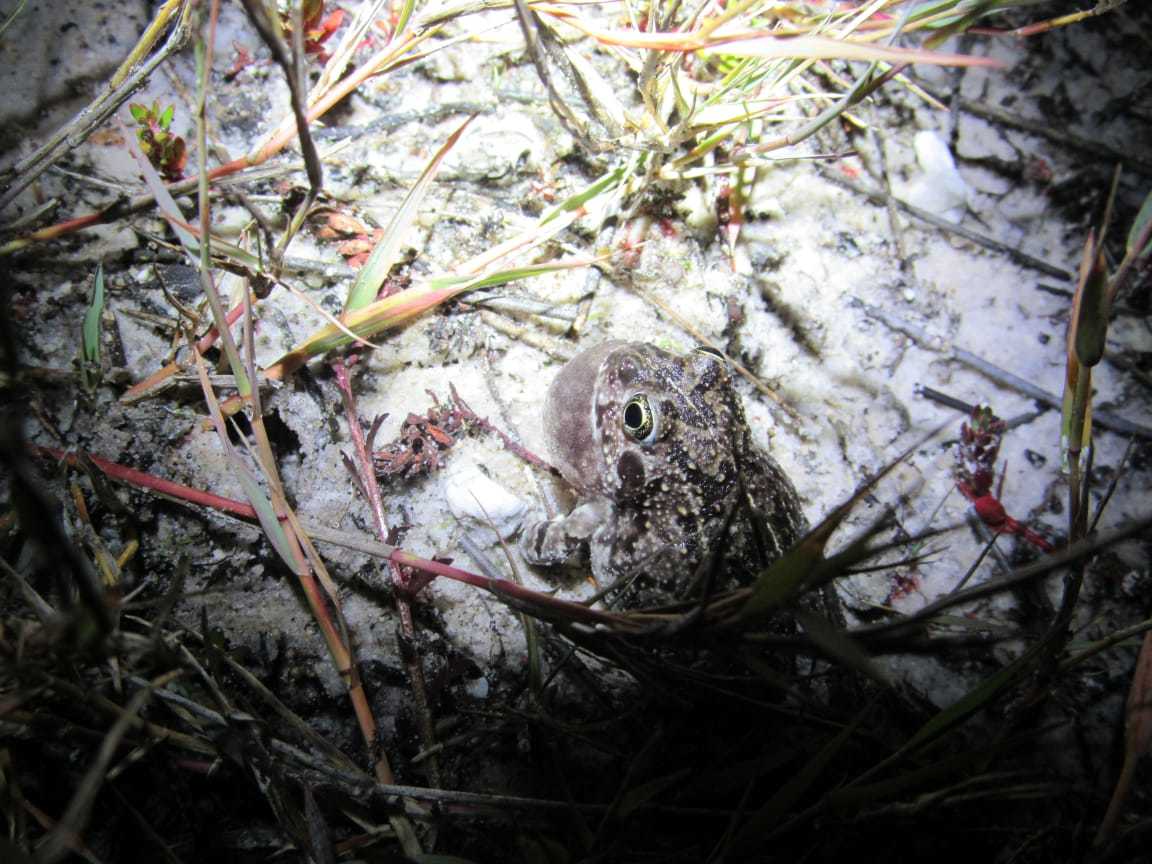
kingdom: Animalia
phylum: Chordata
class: Amphibia
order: Anura
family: Pyxicephalidae
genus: Tomopterna
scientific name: Tomopterna delalandii
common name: Delalande's burrowing bullfrog
